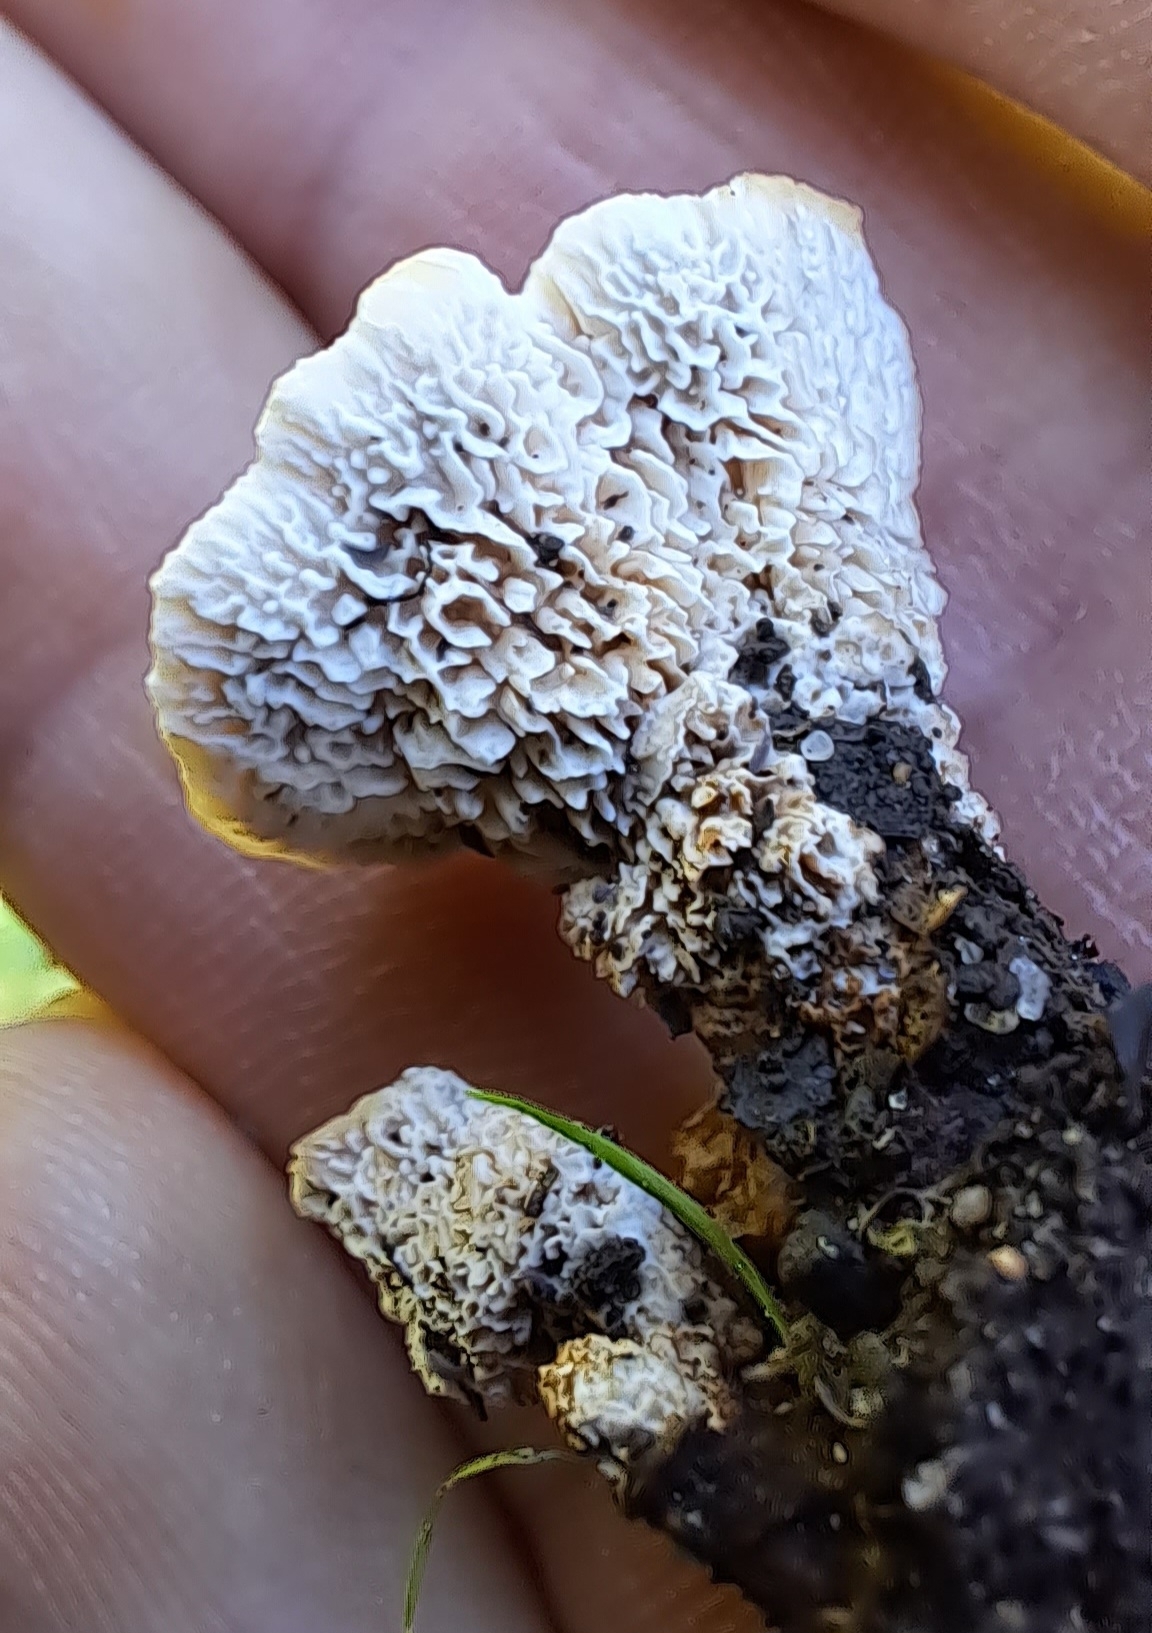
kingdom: Fungi
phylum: Basidiomycota
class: Agaricomycetes
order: Polyporales
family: Podoscyphaceae
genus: Abortiporus
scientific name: Abortiporus biennis
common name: Blushing rosette
